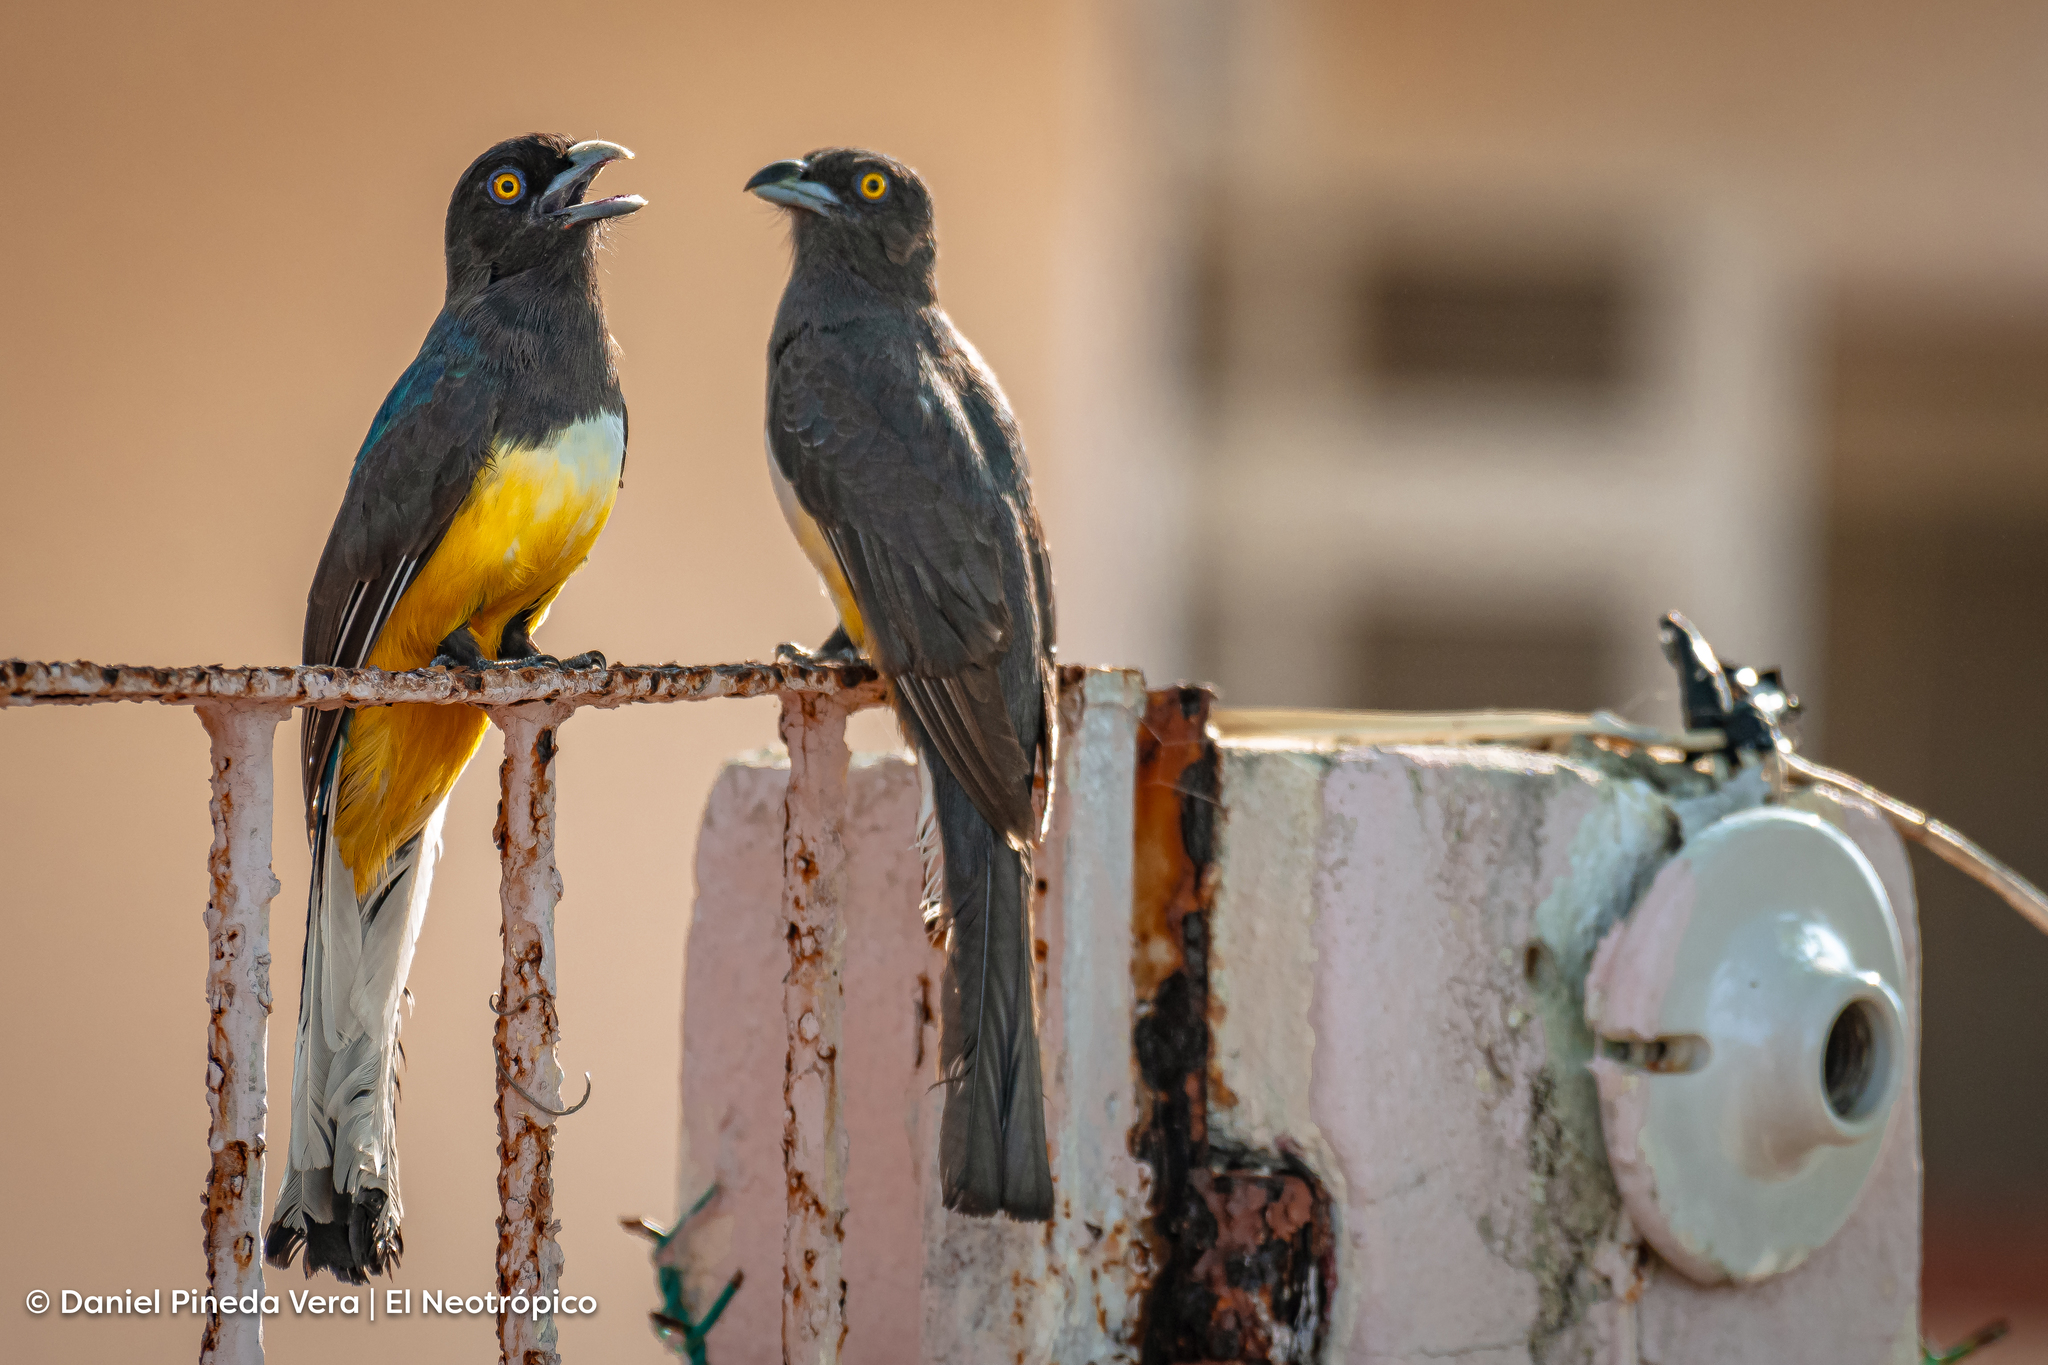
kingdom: Animalia
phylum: Chordata
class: Aves
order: Trogoniformes
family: Trogonidae
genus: Trogon
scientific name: Trogon citreolus
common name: Citreoline trogon
